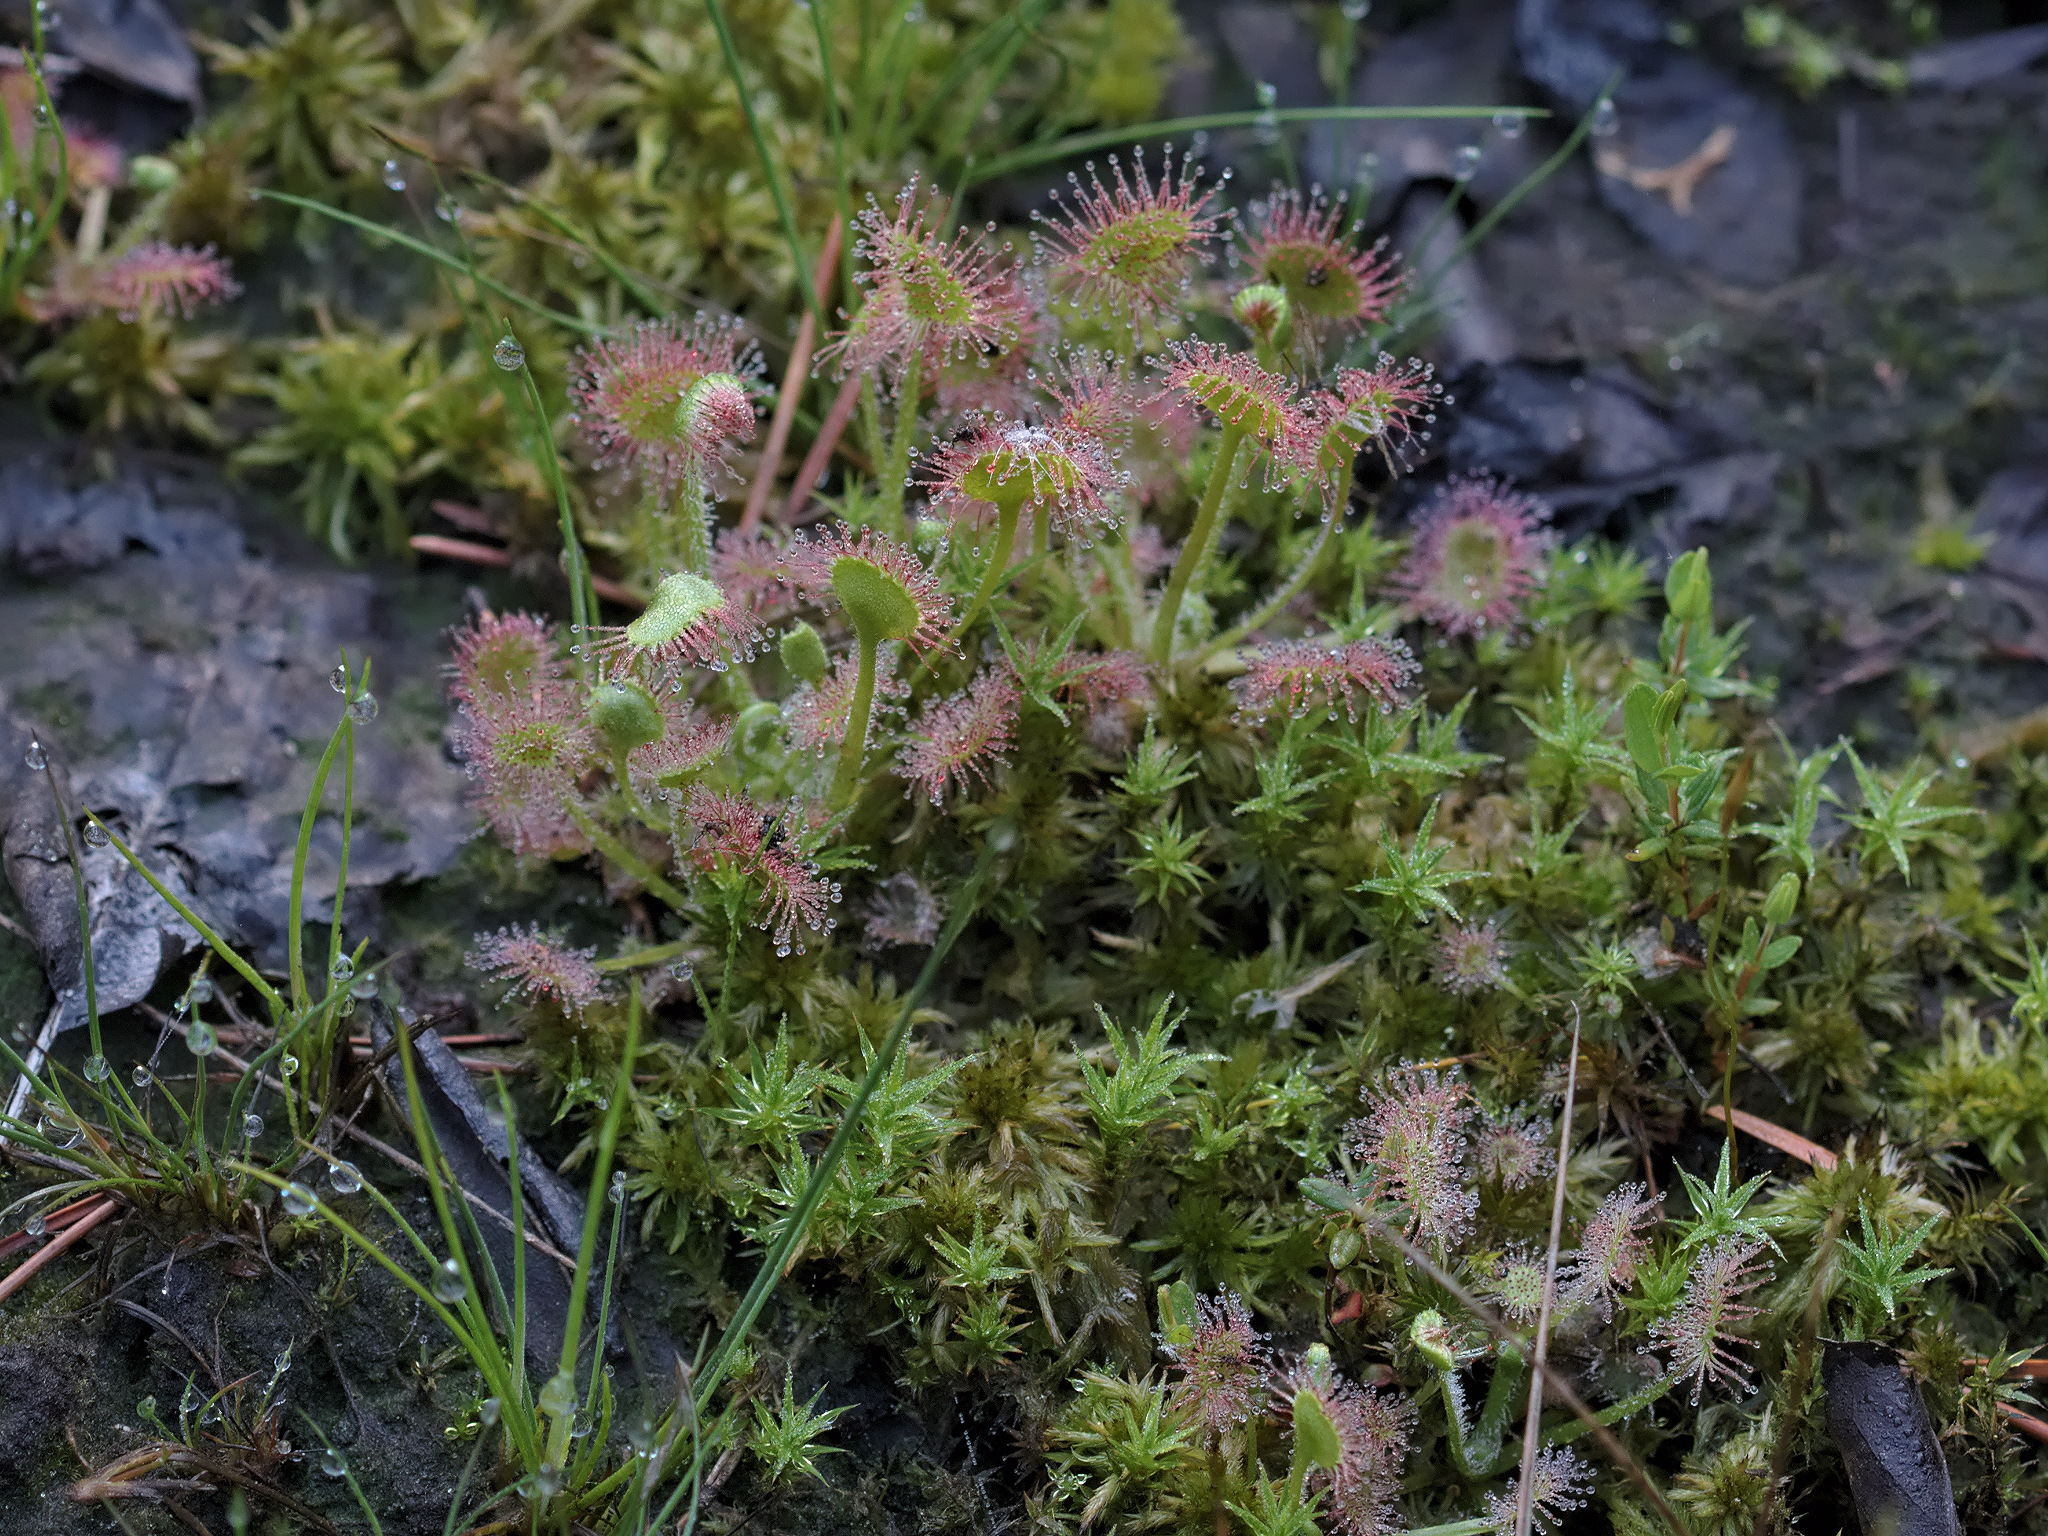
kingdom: Plantae
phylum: Tracheophyta
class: Magnoliopsida
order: Caryophyllales
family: Droseraceae
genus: Drosera
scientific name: Drosera rotundifolia
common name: Round-leaved sundew
